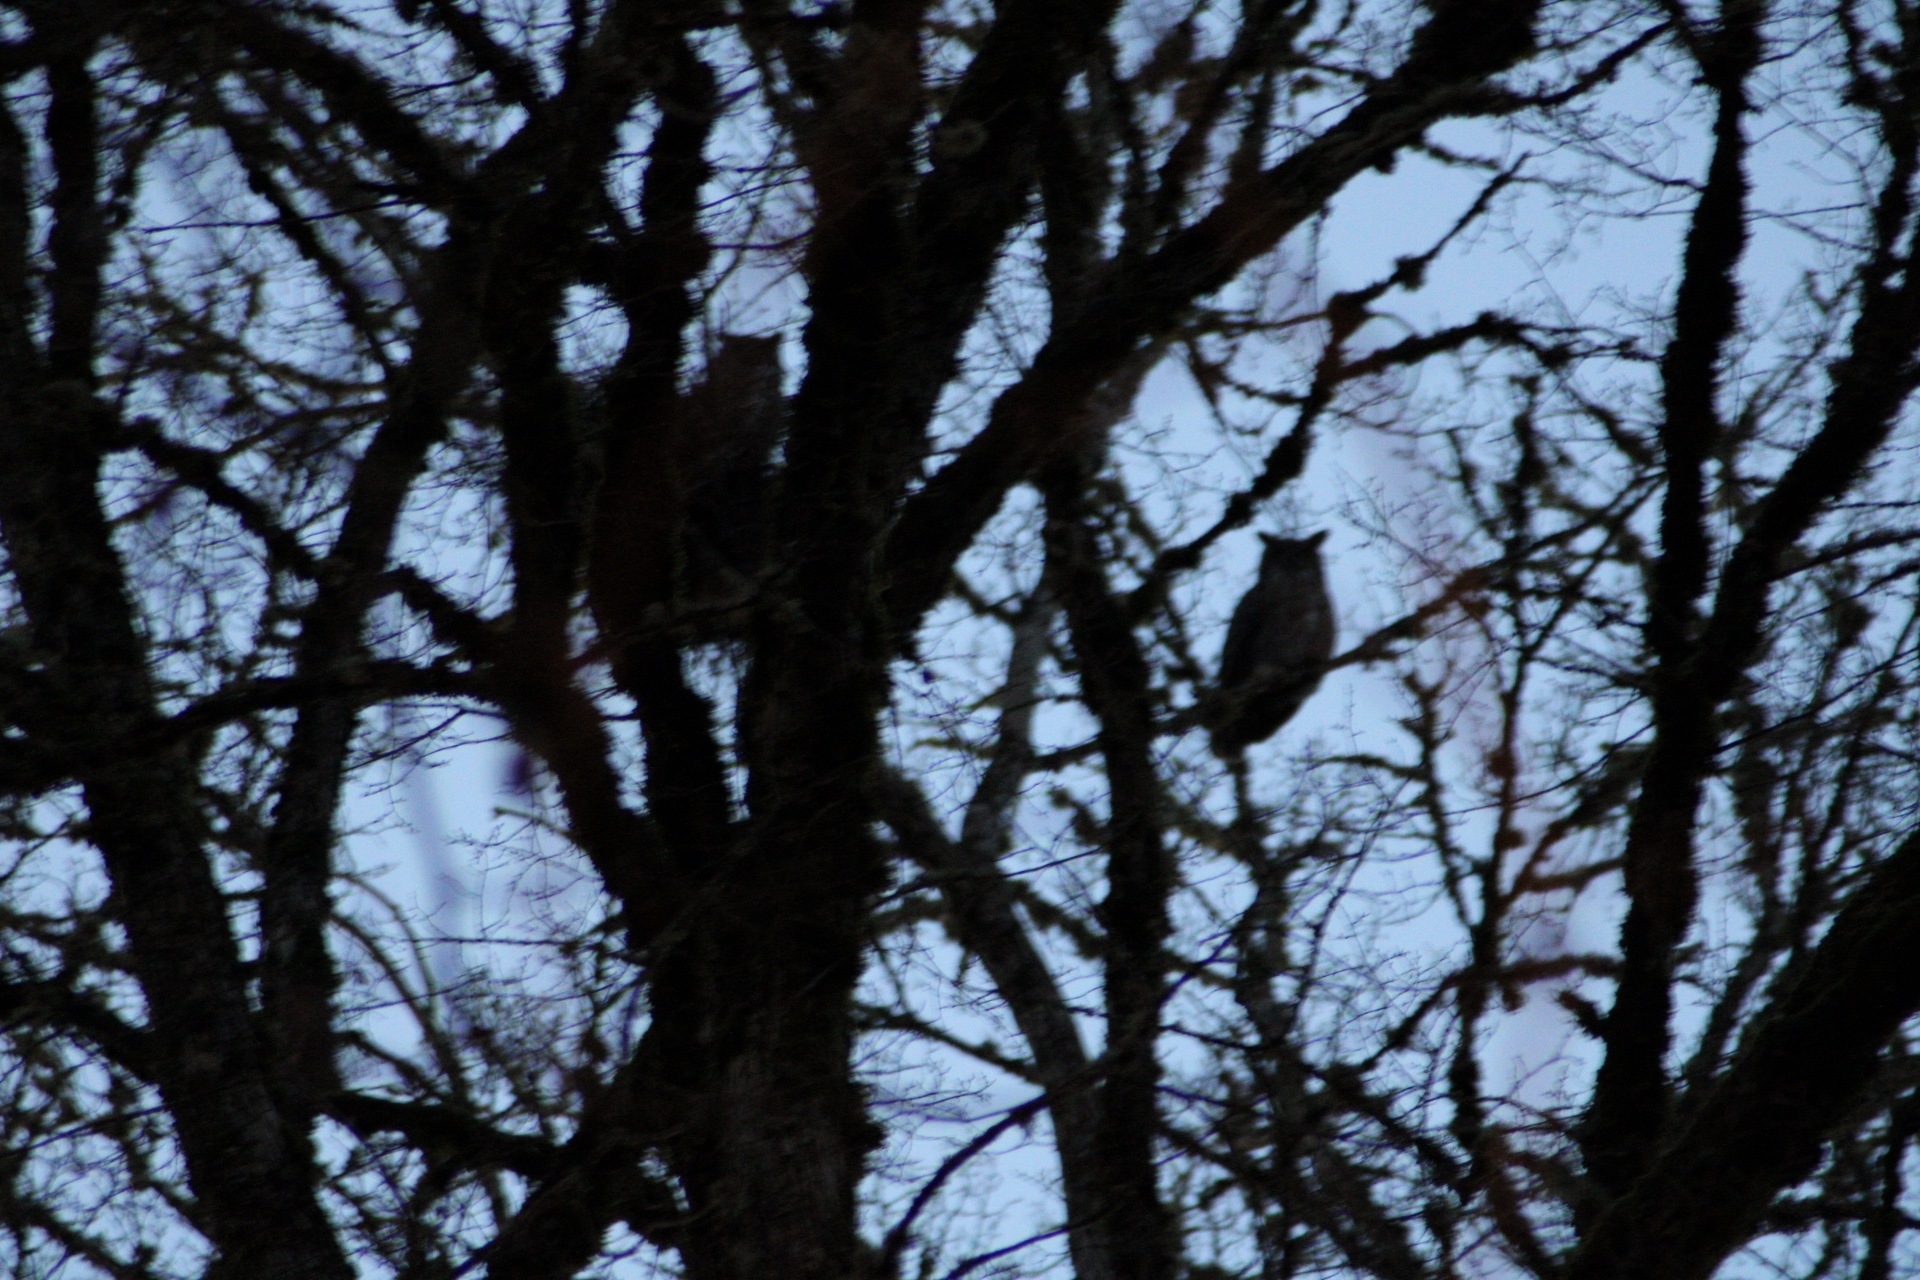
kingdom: Animalia
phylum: Chordata
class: Aves
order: Strigiformes
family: Strigidae
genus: Bubo
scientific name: Bubo virginianus
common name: Great horned owl
